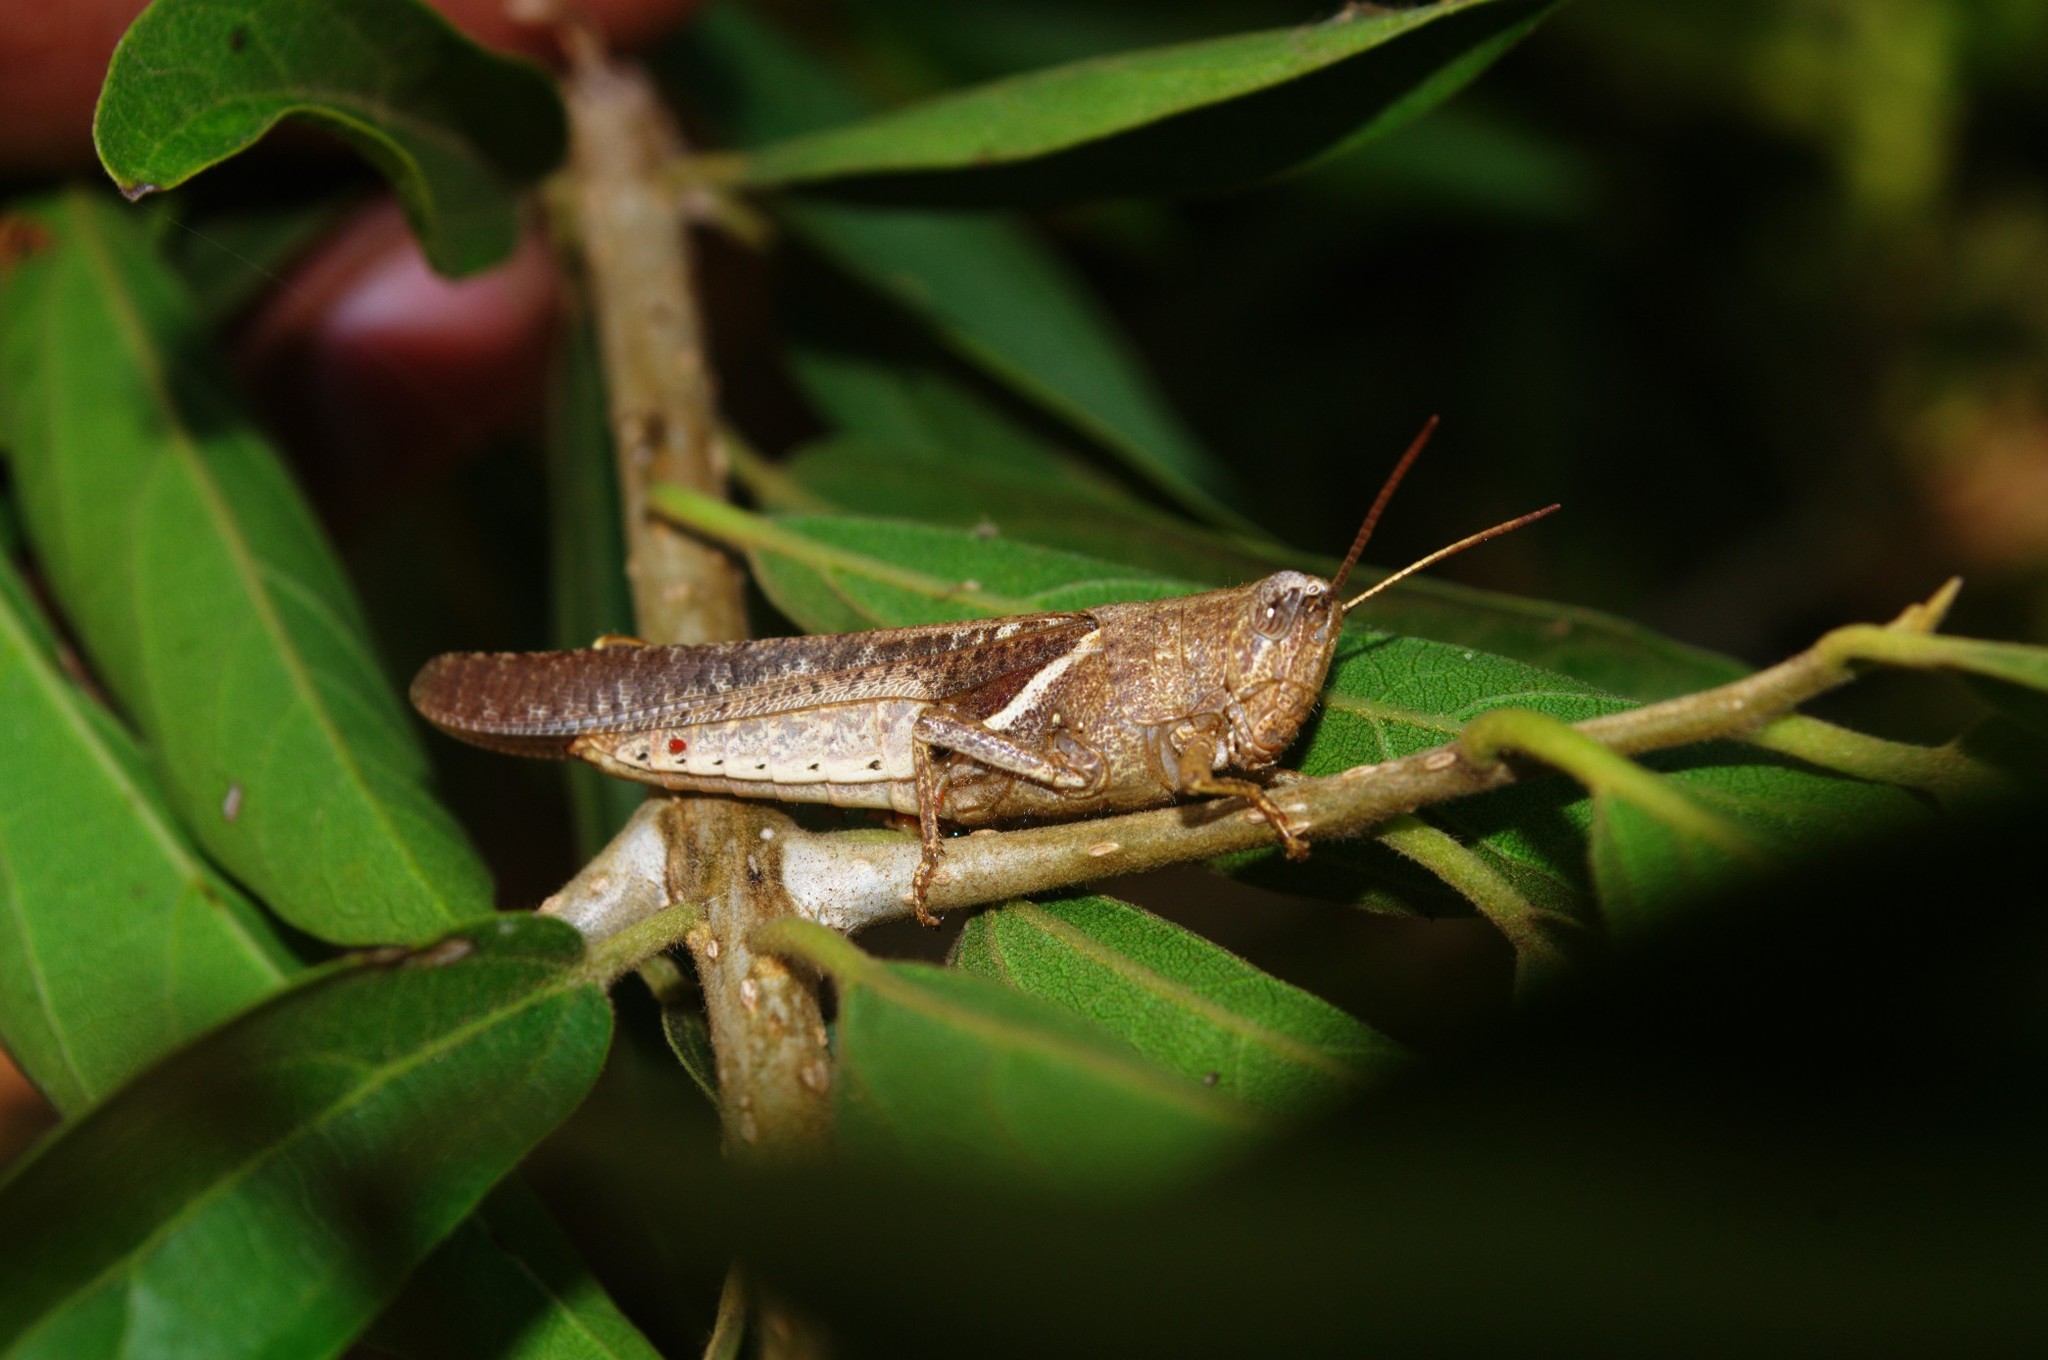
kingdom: Animalia
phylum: Arthropoda
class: Insecta
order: Orthoptera
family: Acrididae
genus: Diabolocatantops
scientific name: Diabolocatantops innotabilis
